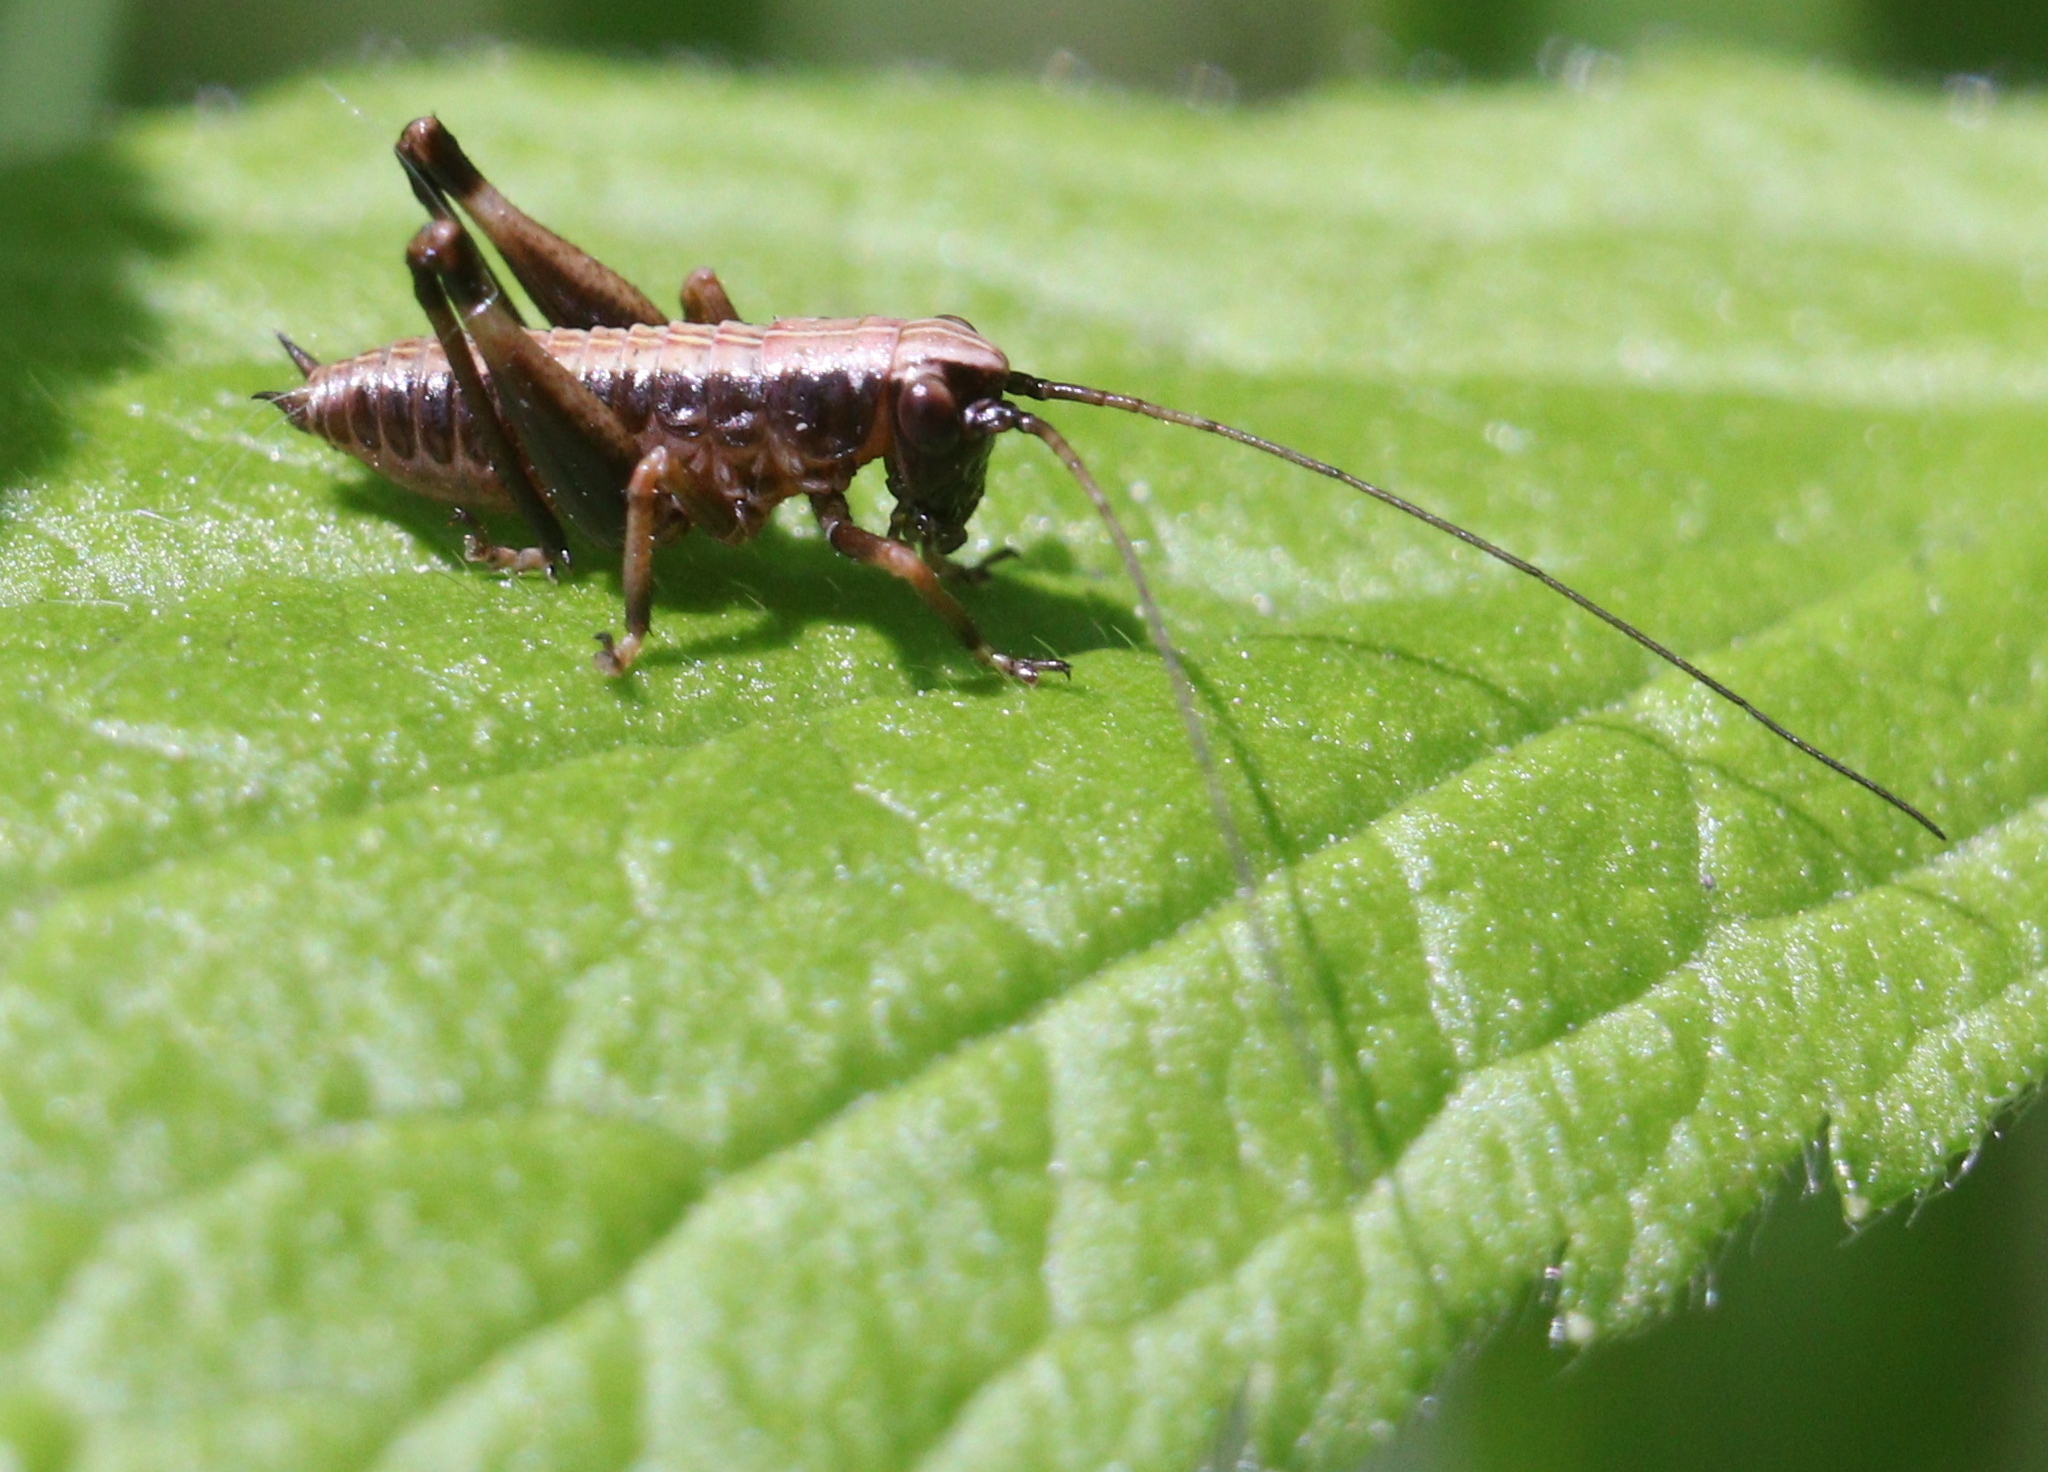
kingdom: Animalia
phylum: Arthropoda
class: Insecta
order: Orthoptera
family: Tettigoniidae
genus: Pholidoptera
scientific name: Pholidoptera griseoaptera
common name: Dark bush-cricket
